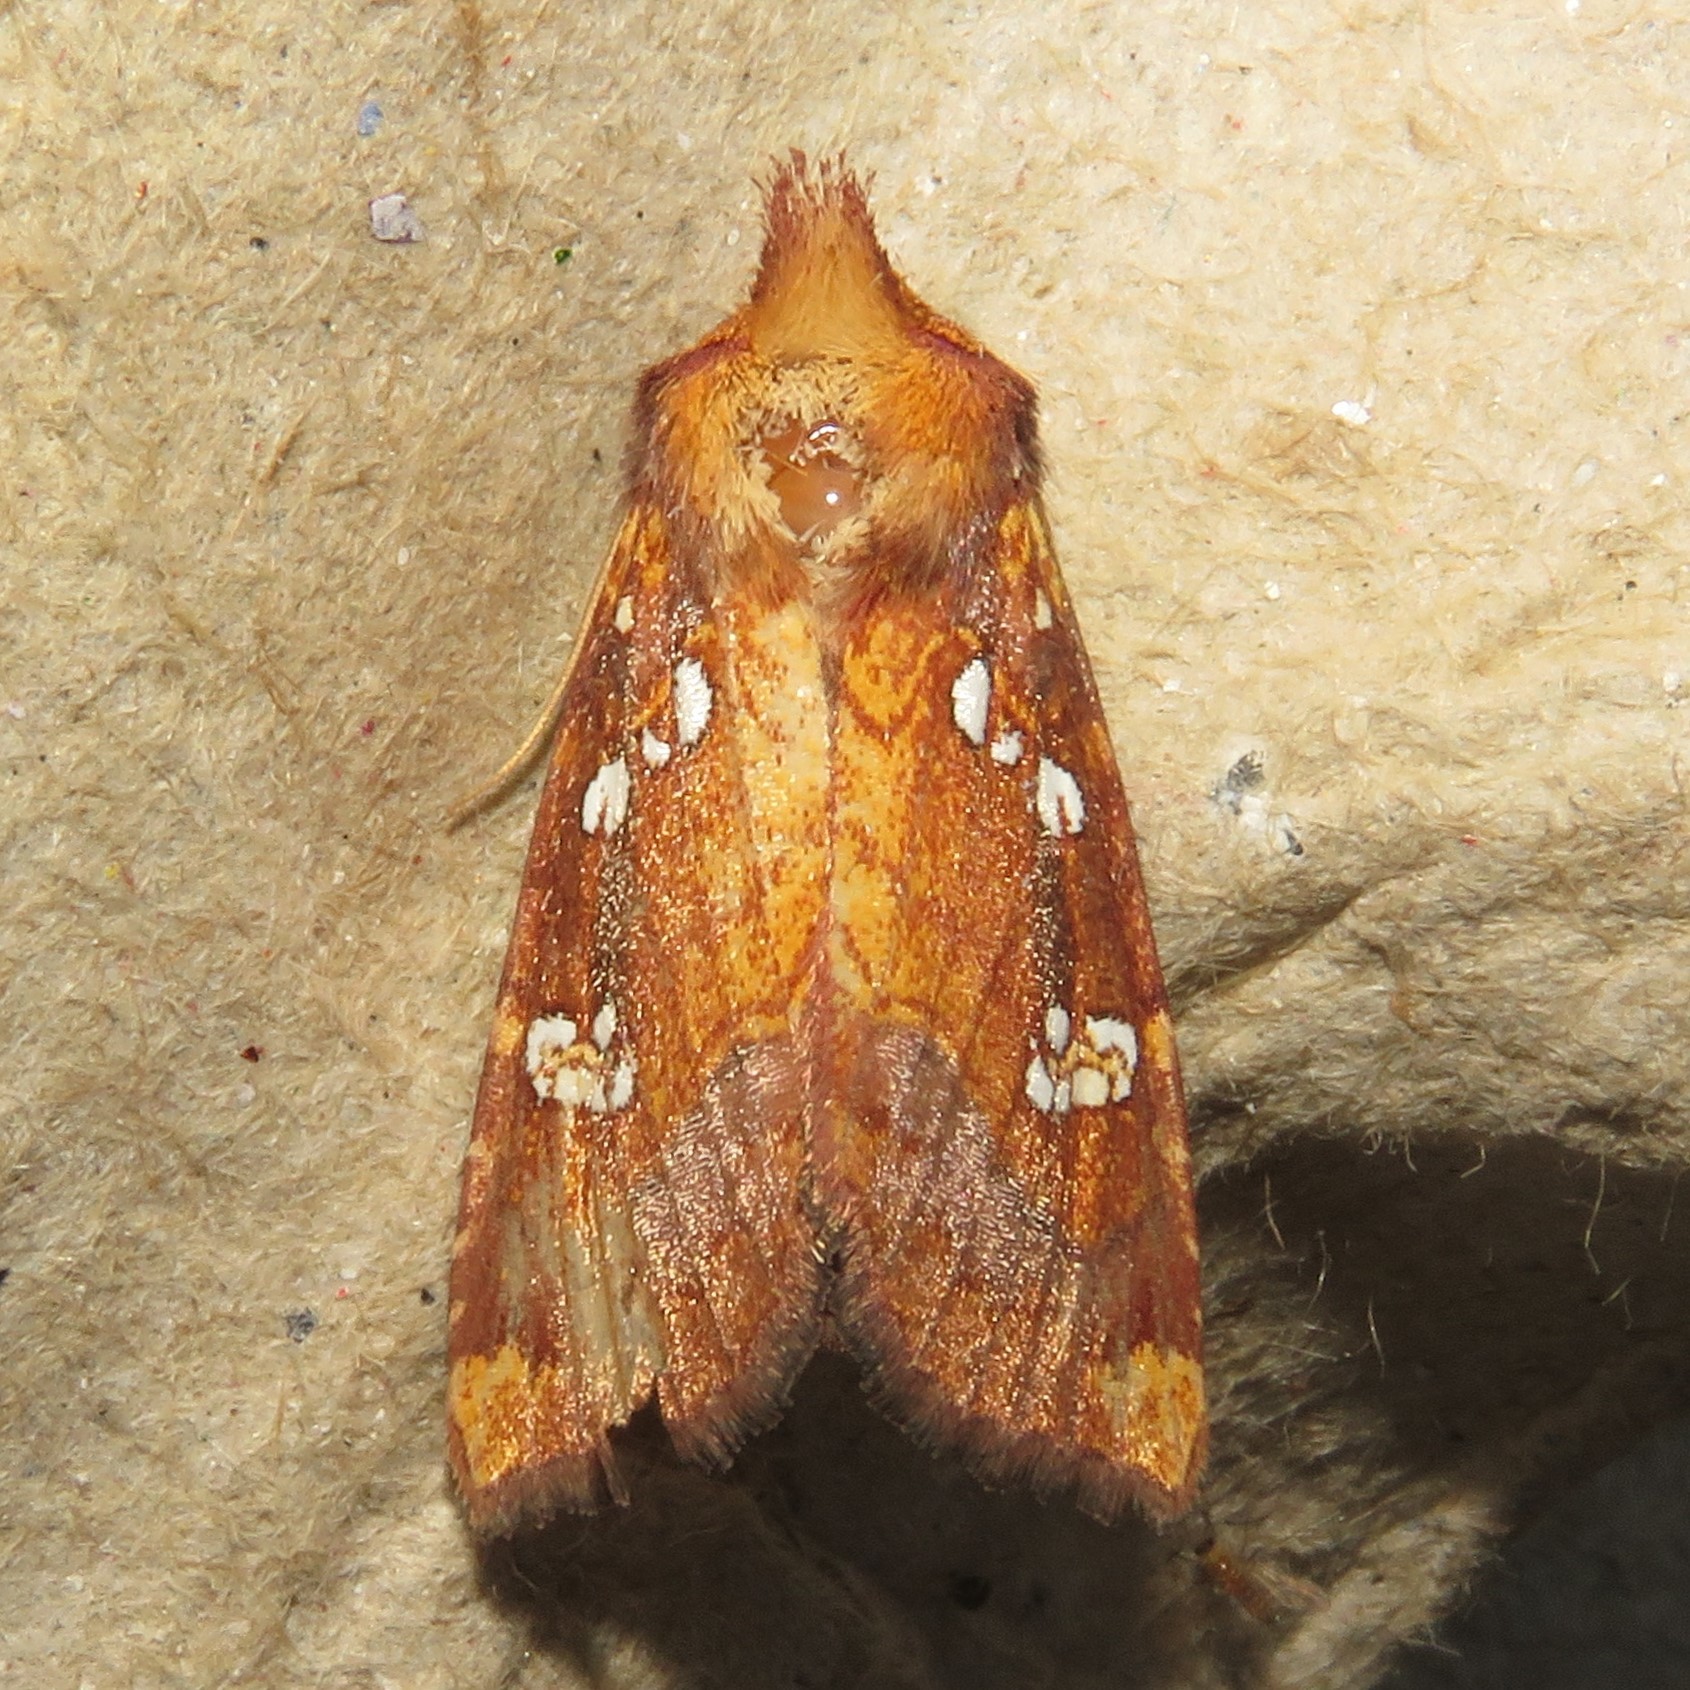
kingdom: Animalia
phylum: Arthropoda
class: Insecta
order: Lepidoptera
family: Noctuidae
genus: Papaipema
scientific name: Papaipema baptisiae
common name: Wild indigo borer moth
